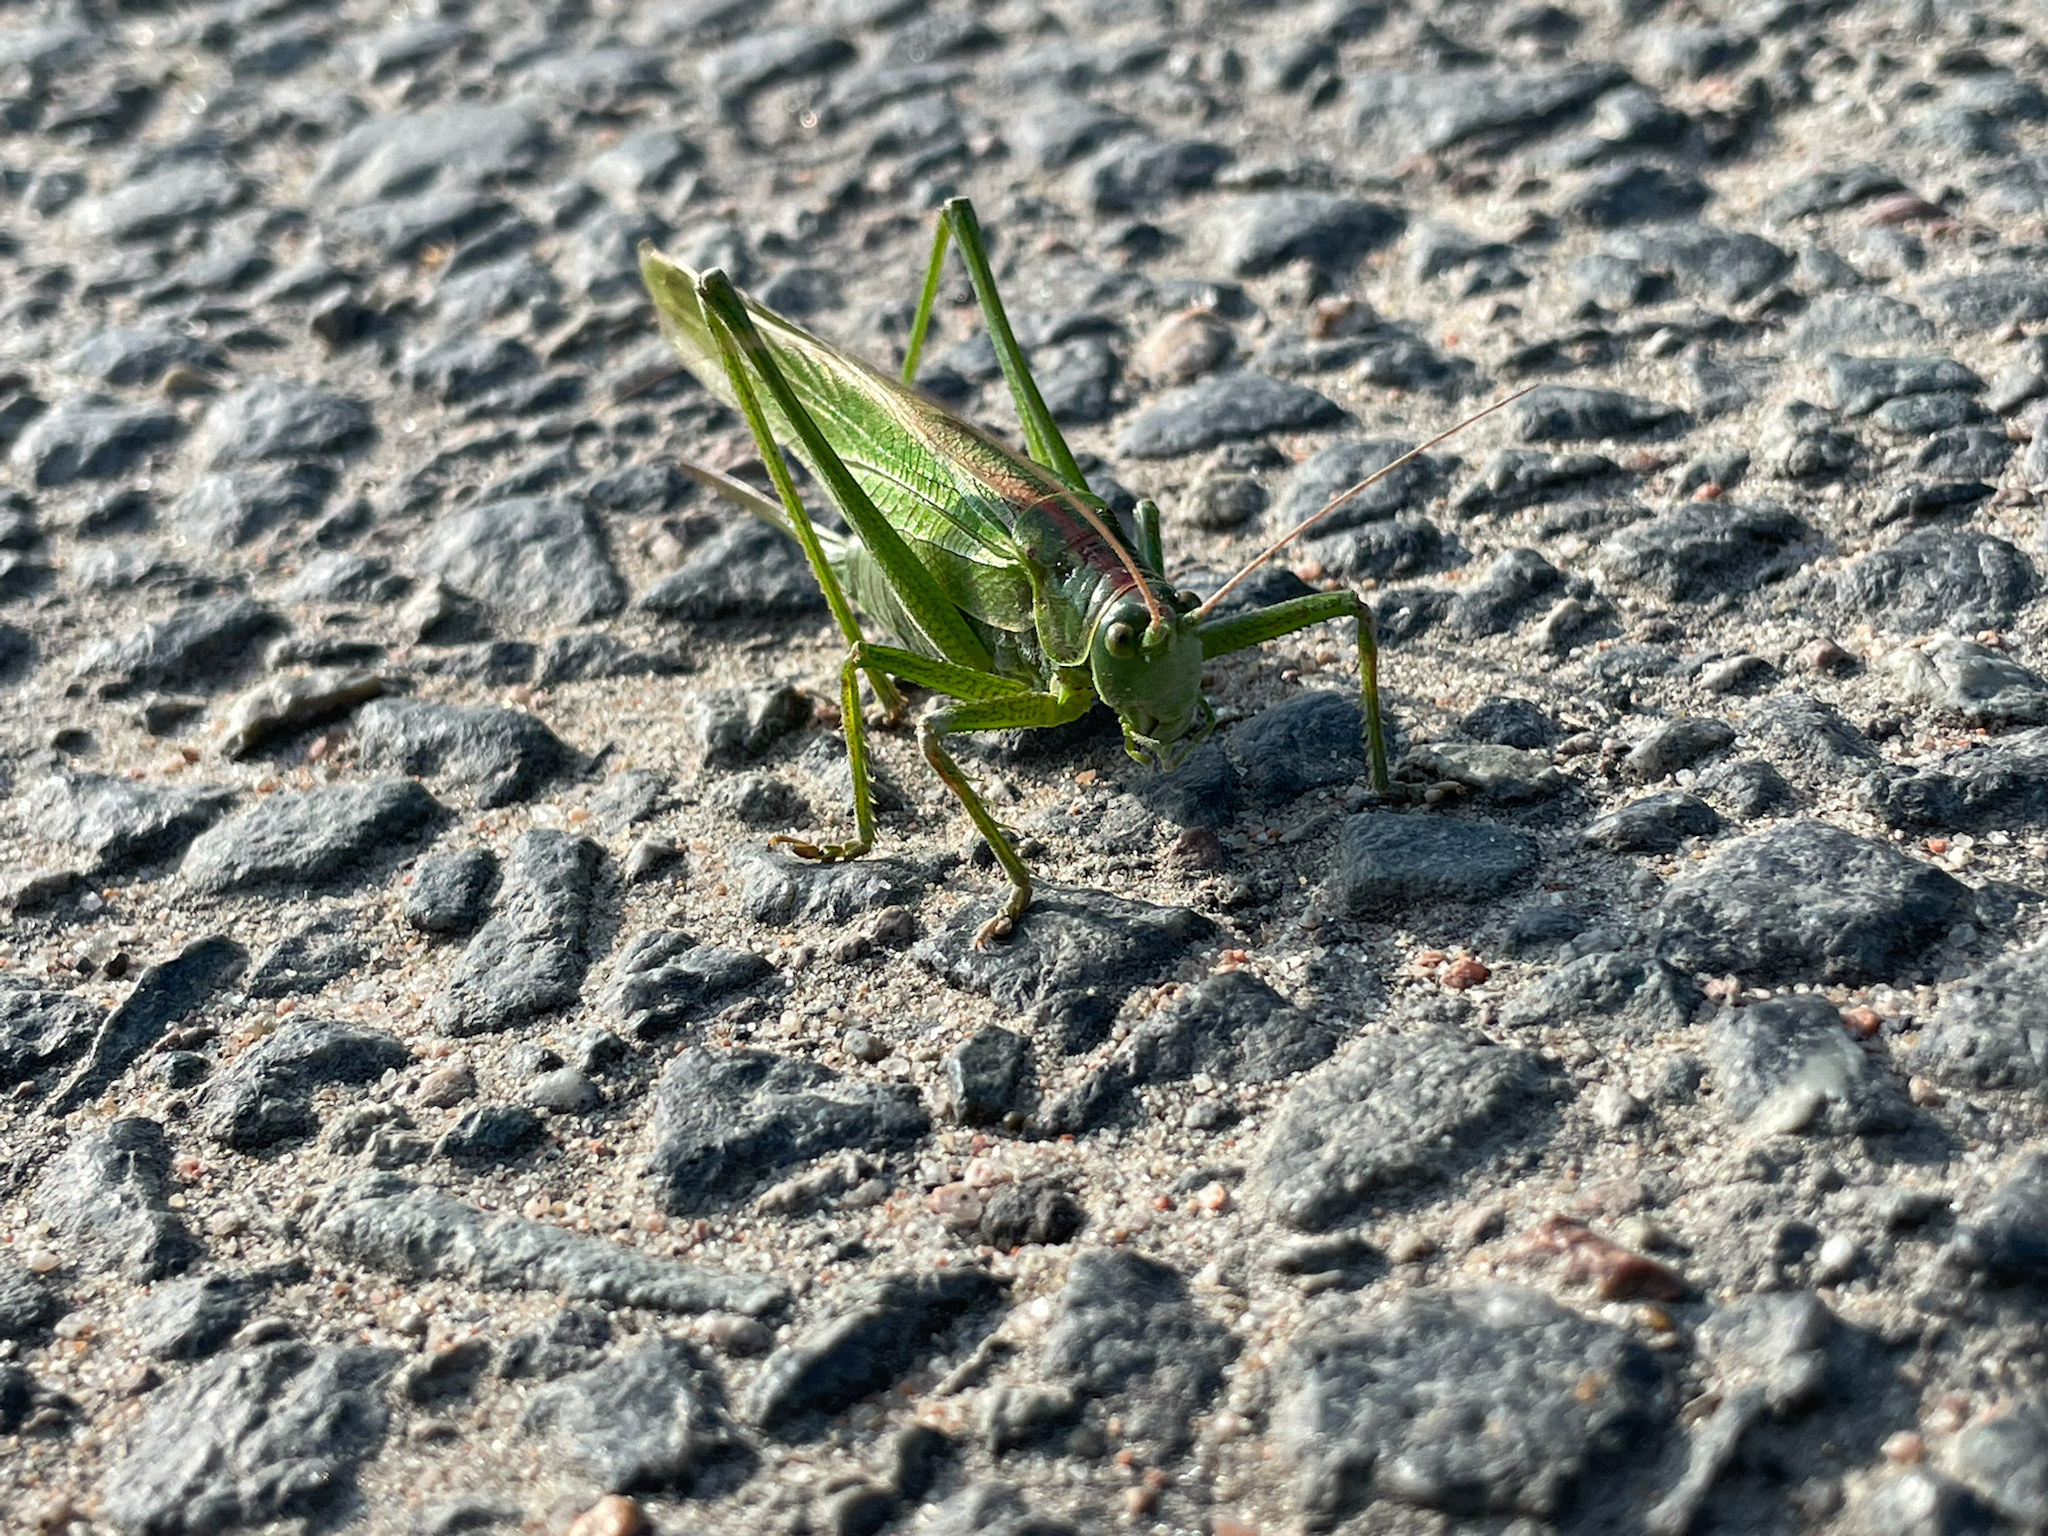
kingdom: Animalia
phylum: Arthropoda
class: Insecta
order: Orthoptera
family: Tettigoniidae
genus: Tettigonia
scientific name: Tettigonia viridissima
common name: Great green bush-cricket
